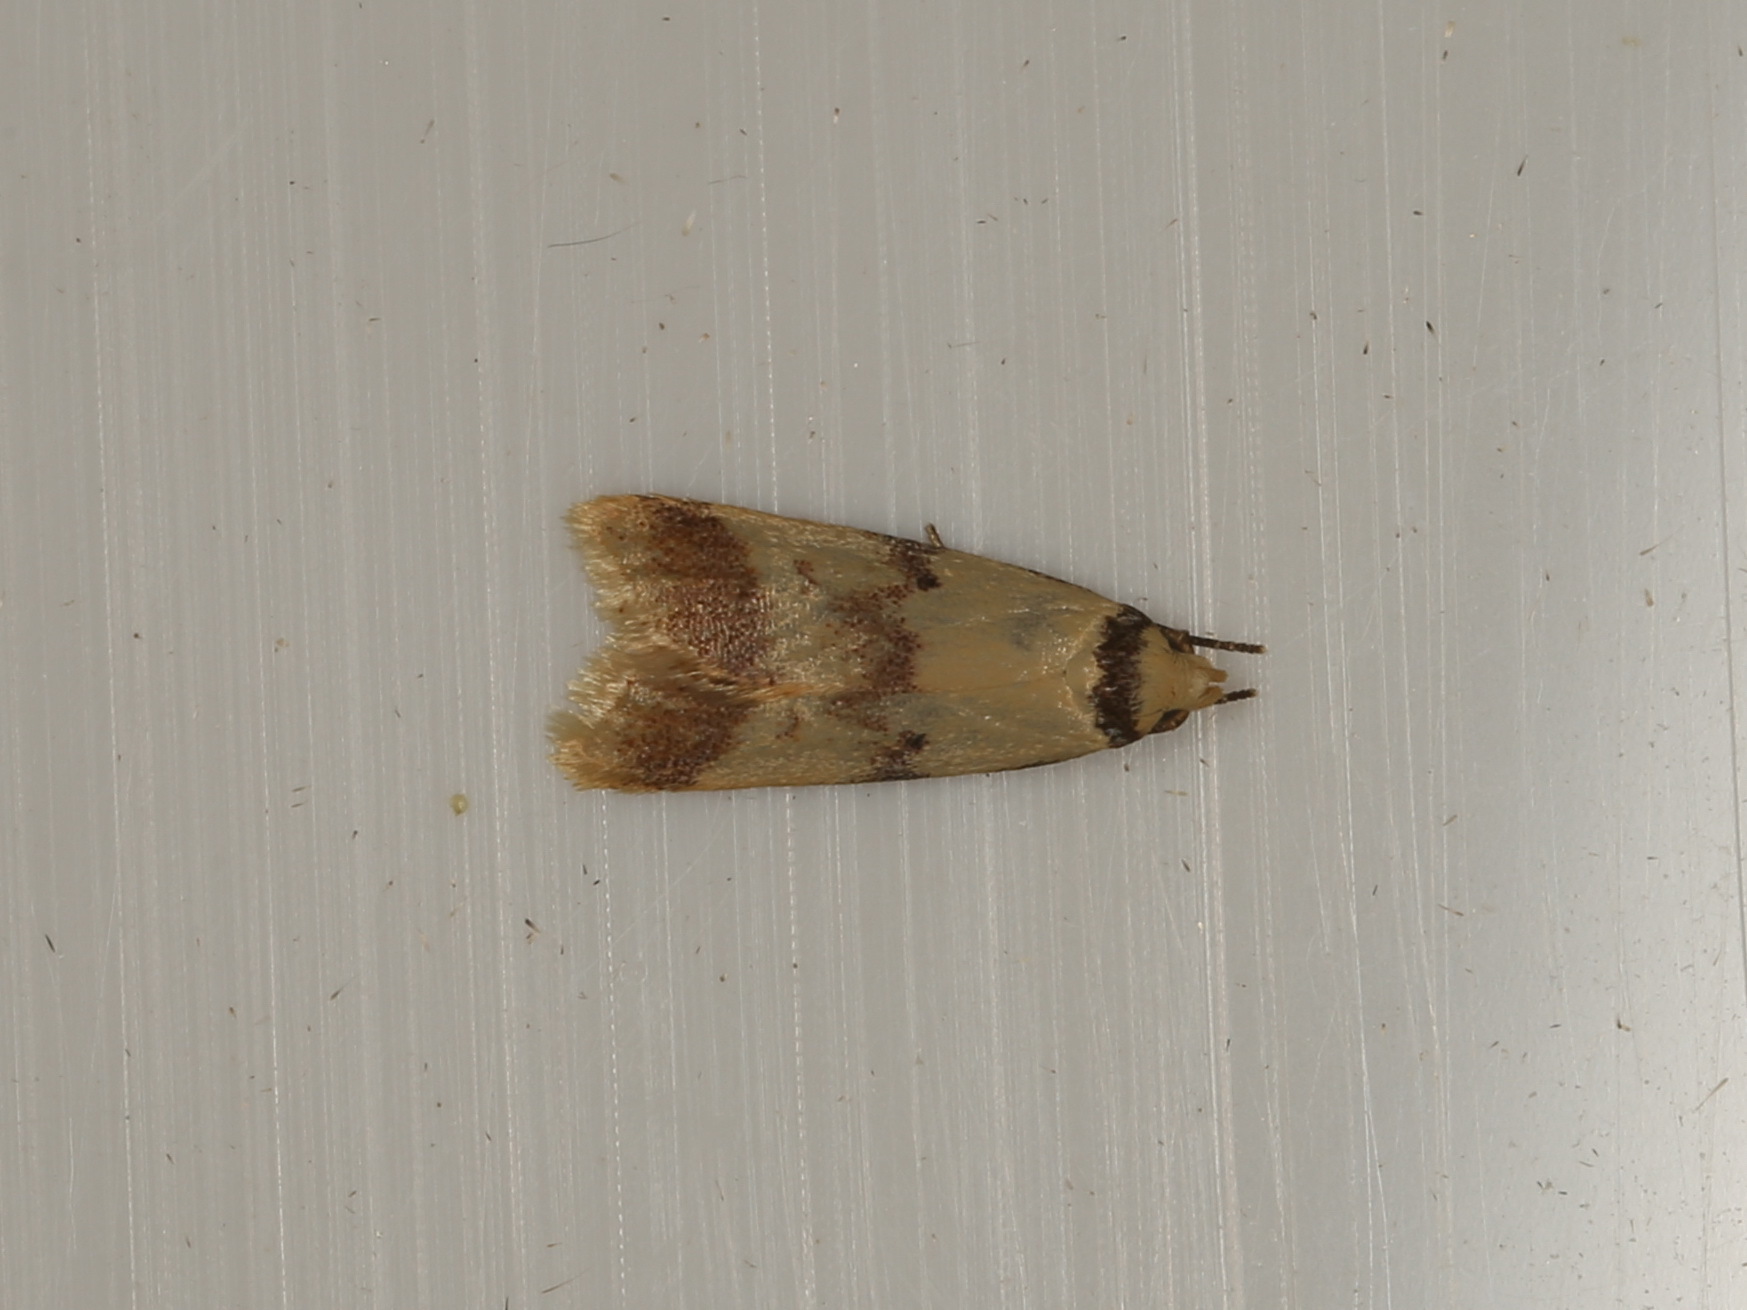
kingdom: Animalia
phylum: Arthropoda
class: Insecta
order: Lepidoptera
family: Oecophoridae
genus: Heteroteucha
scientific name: Heteroteucha anthodora
